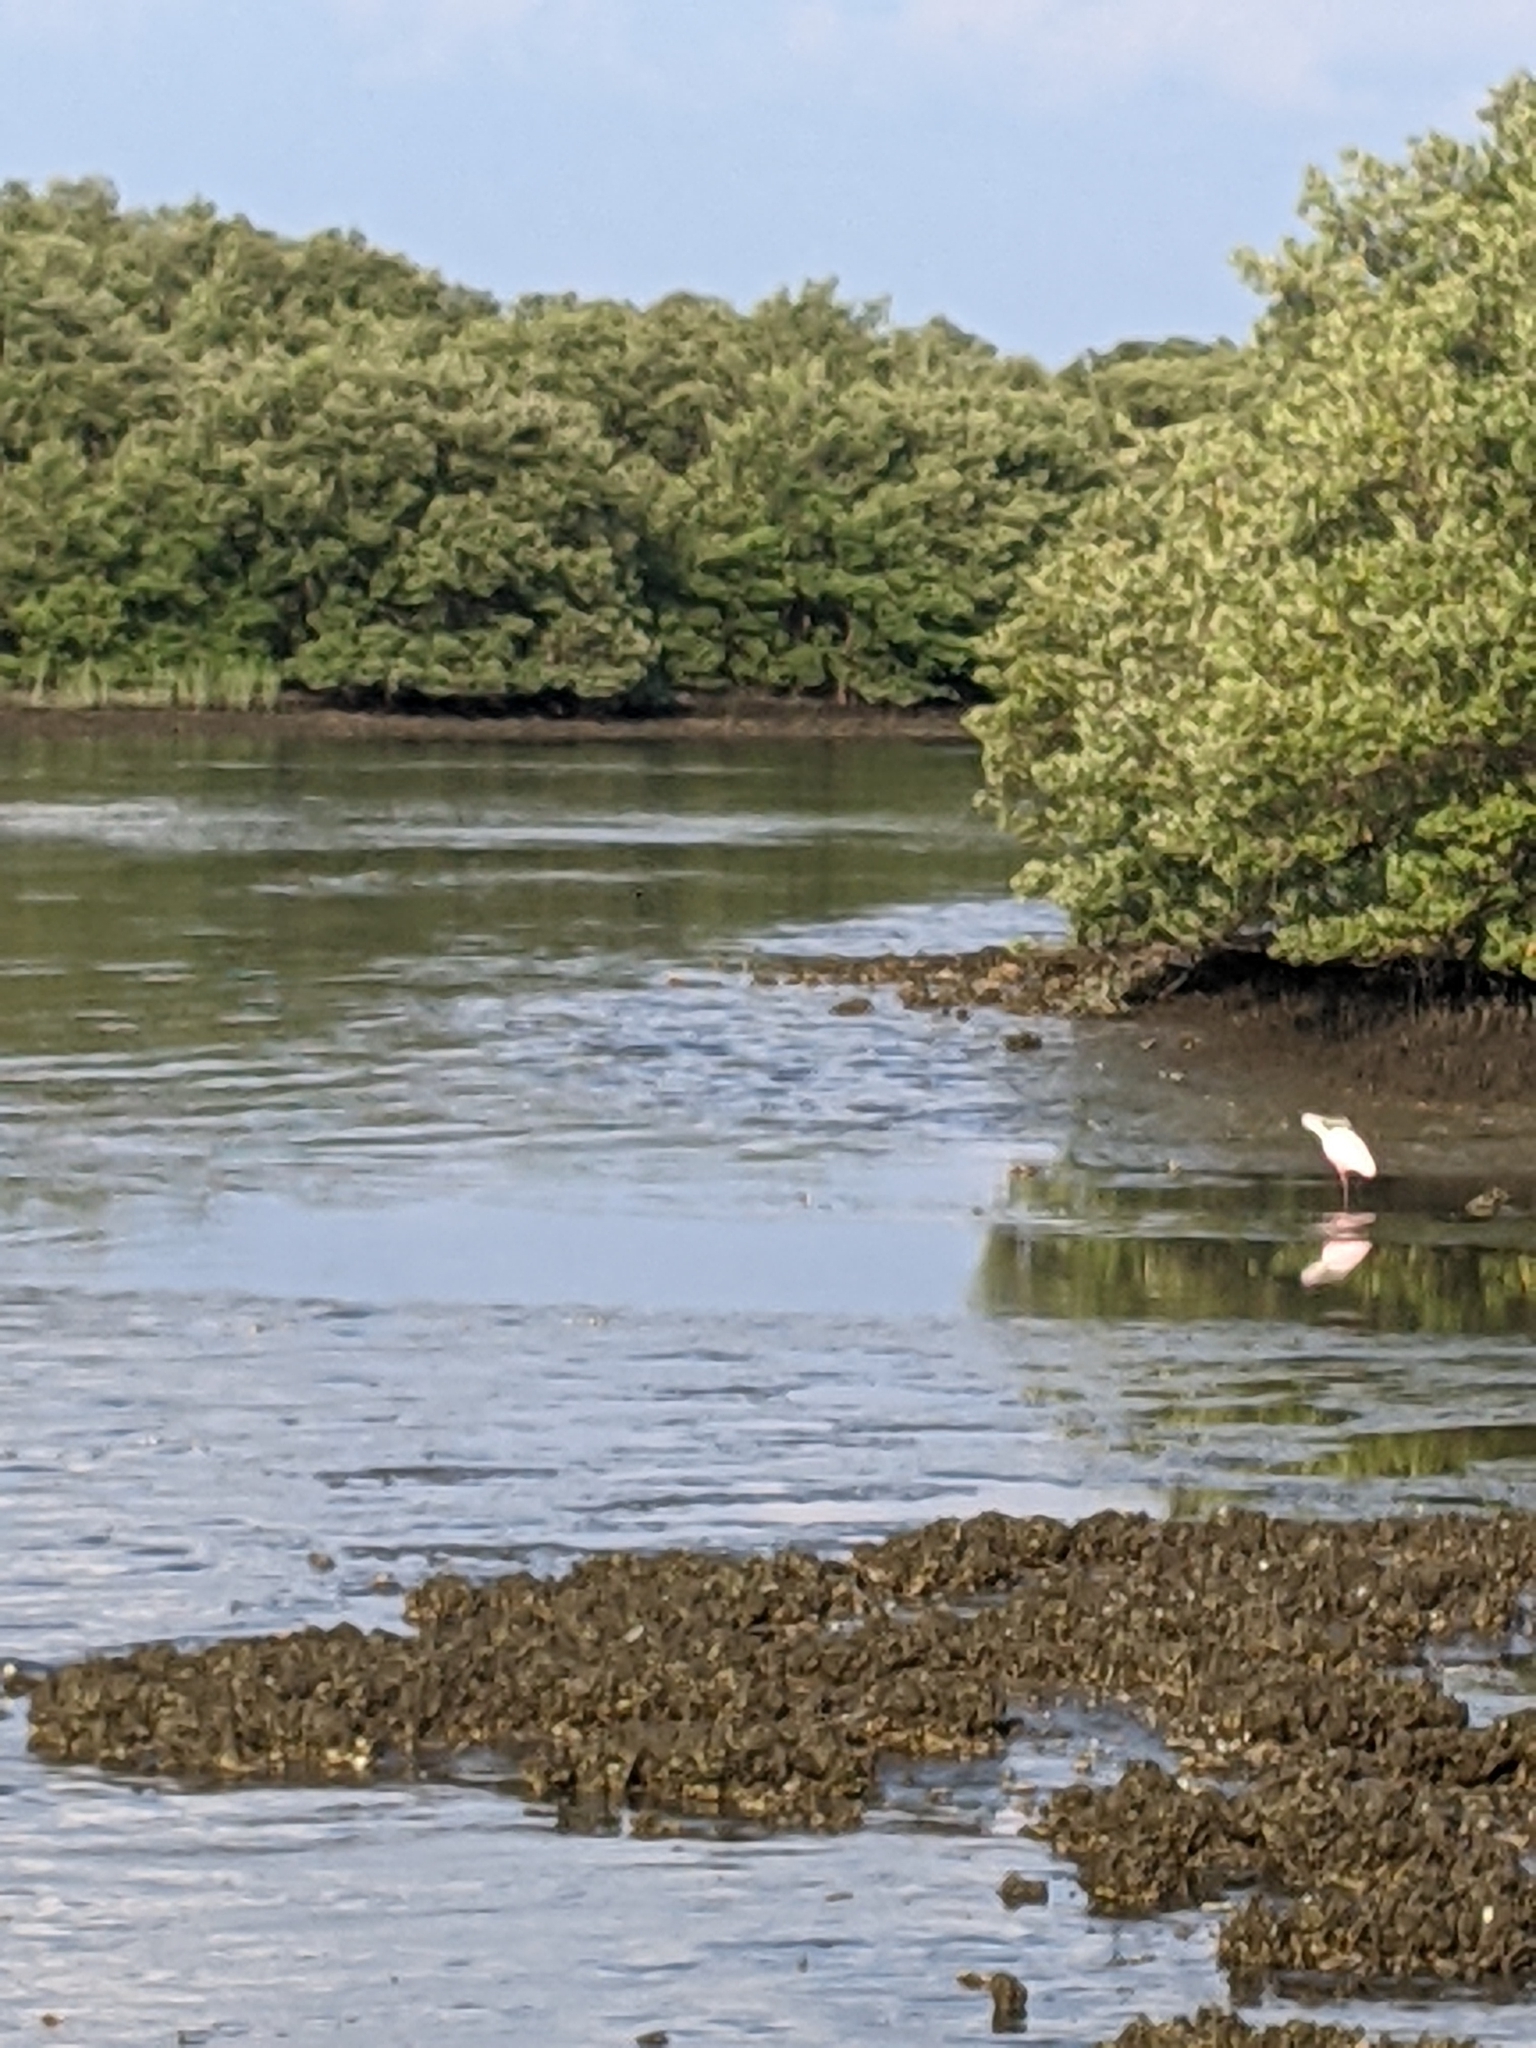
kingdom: Animalia
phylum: Chordata
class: Aves
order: Pelecaniformes
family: Threskiornithidae
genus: Platalea
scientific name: Platalea ajaja
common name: Roseate spoonbill
